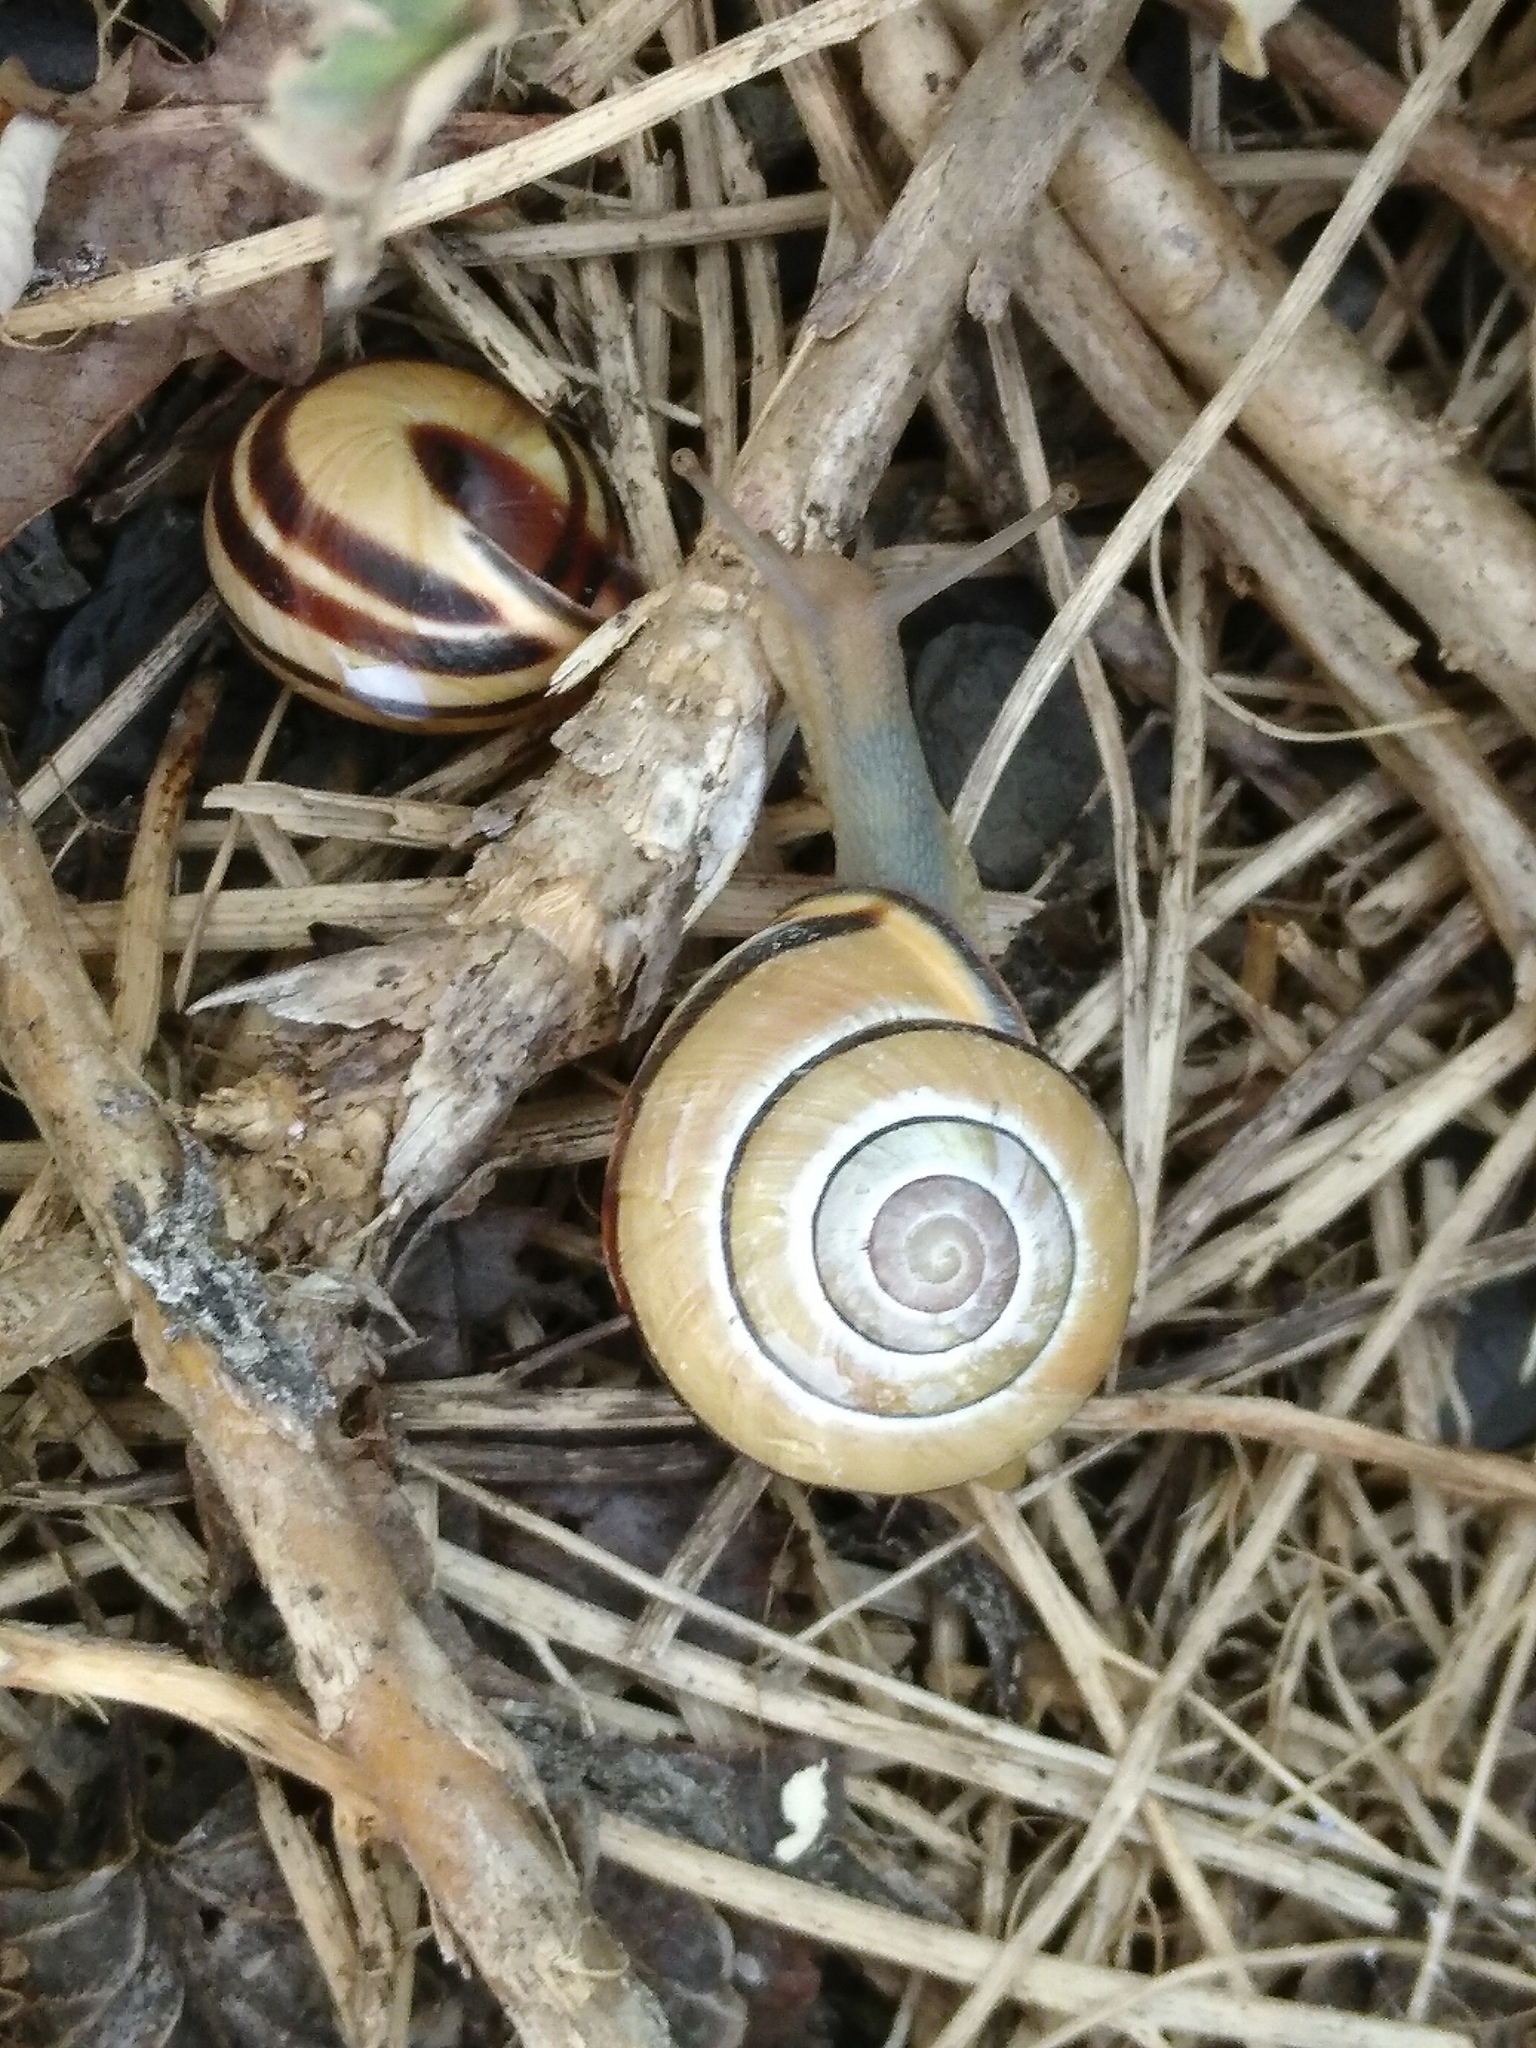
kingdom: Animalia
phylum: Mollusca
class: Gastropoda
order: Stylommatophora
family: Helicidae
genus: Cepaea
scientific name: Cepaea nemoralis
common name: Grovesnail
